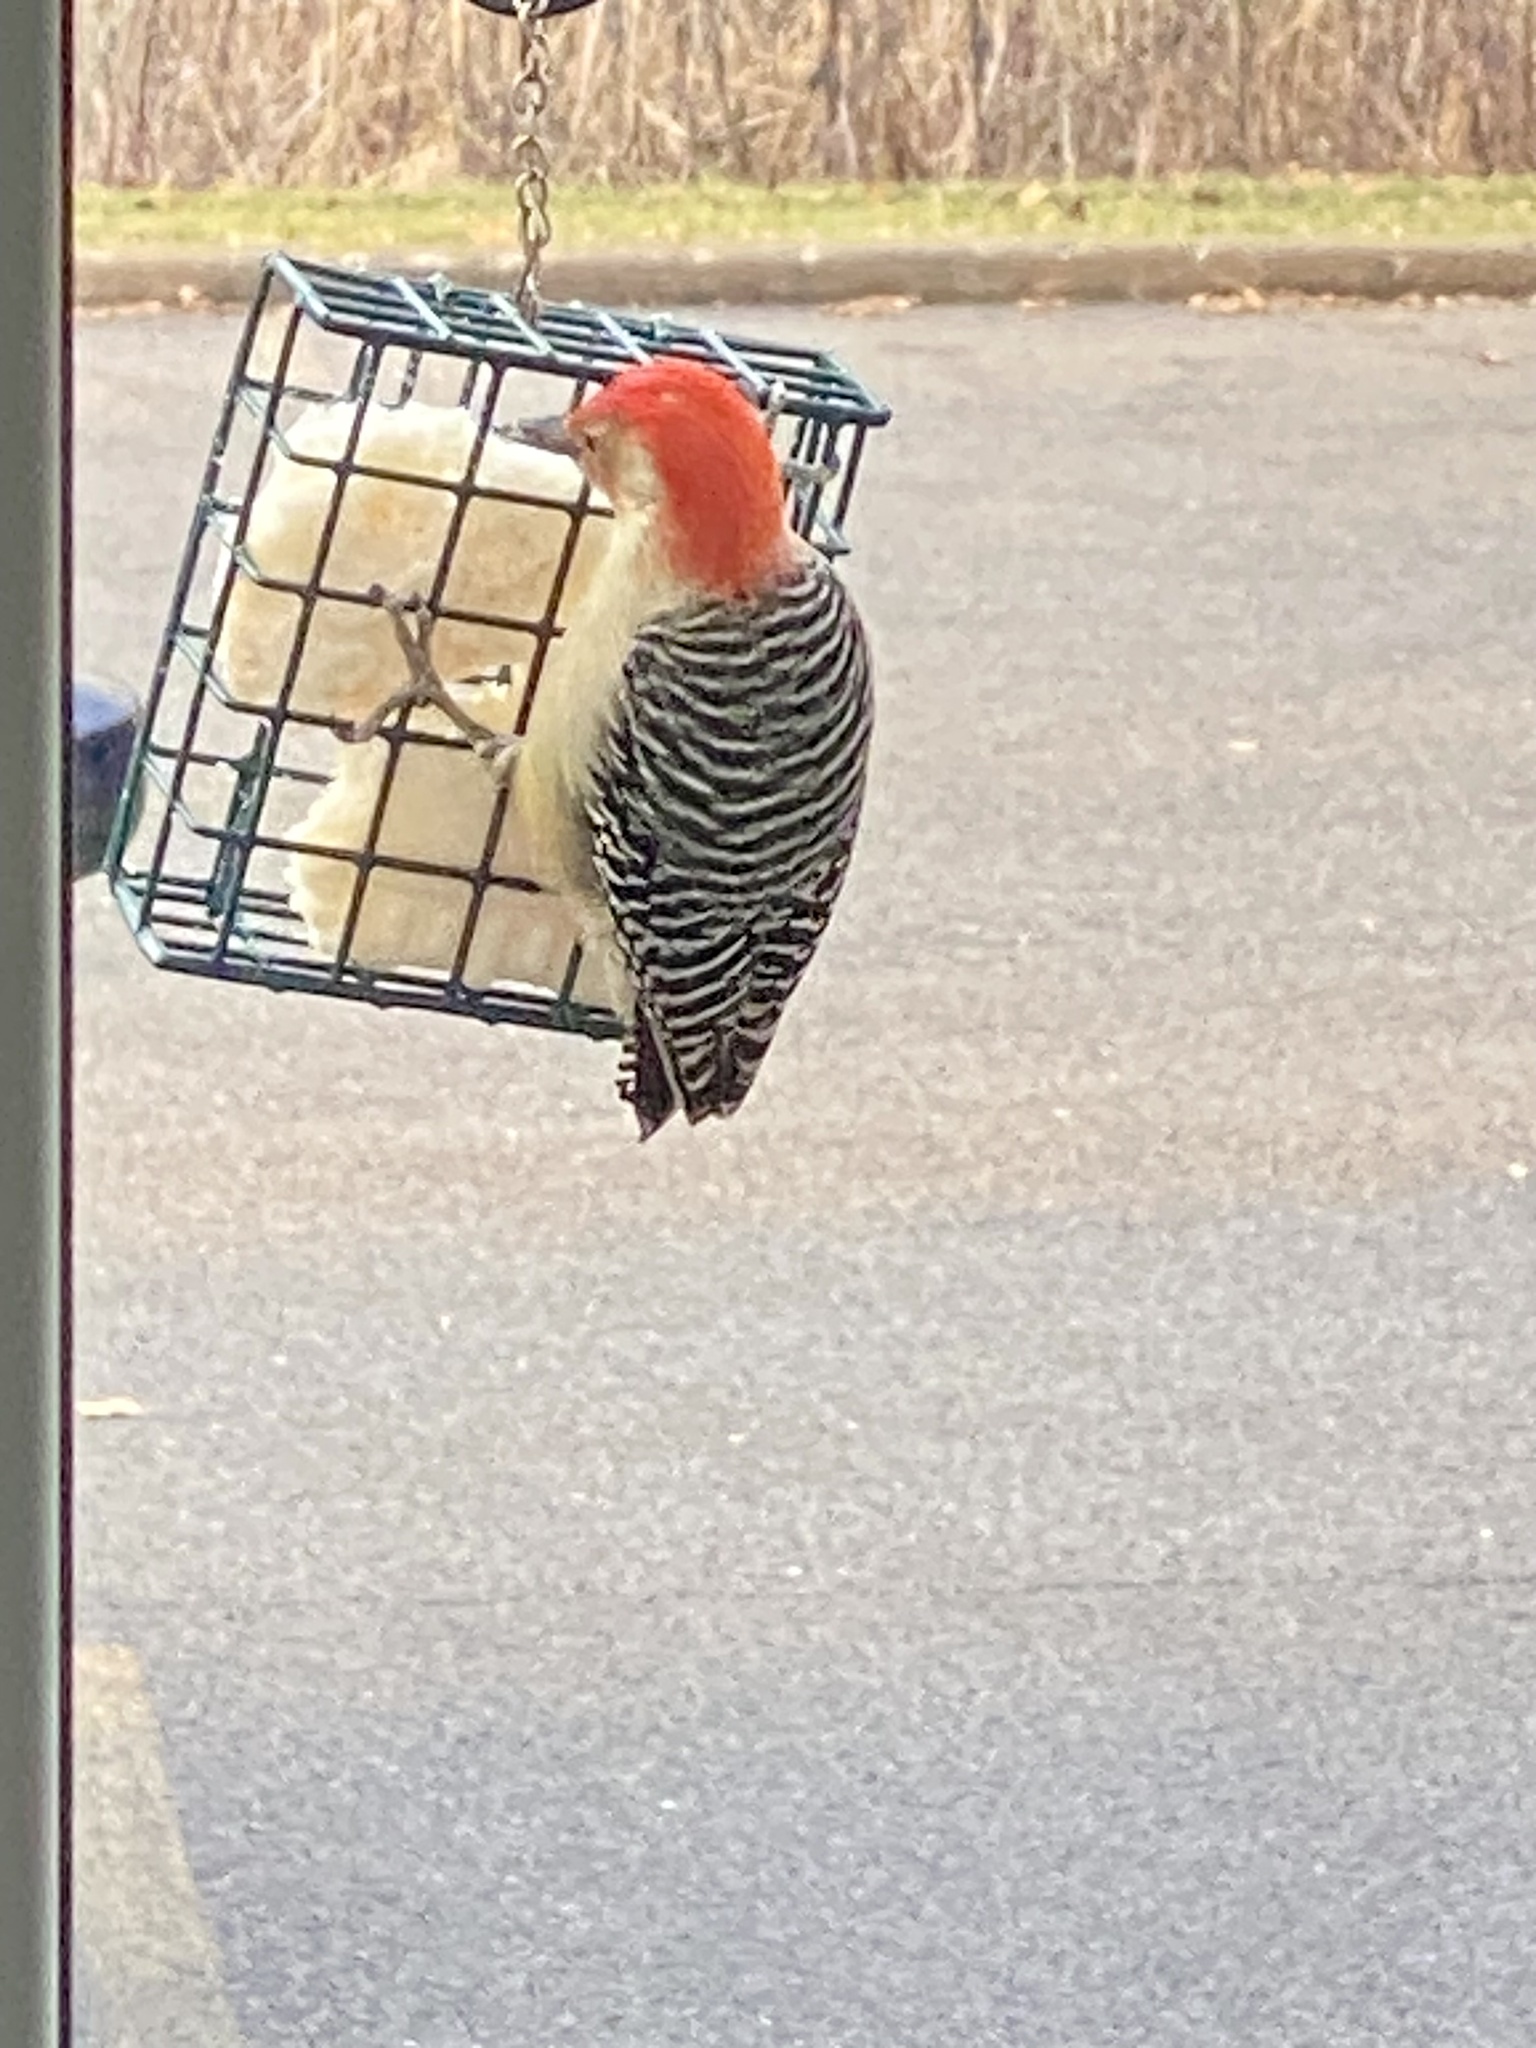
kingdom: Animalia
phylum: Chordata
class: Aves
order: Piciformes
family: Picidae
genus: Melanerpes
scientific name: Melanerpes carolinus
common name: Red-bellied woodpecker
